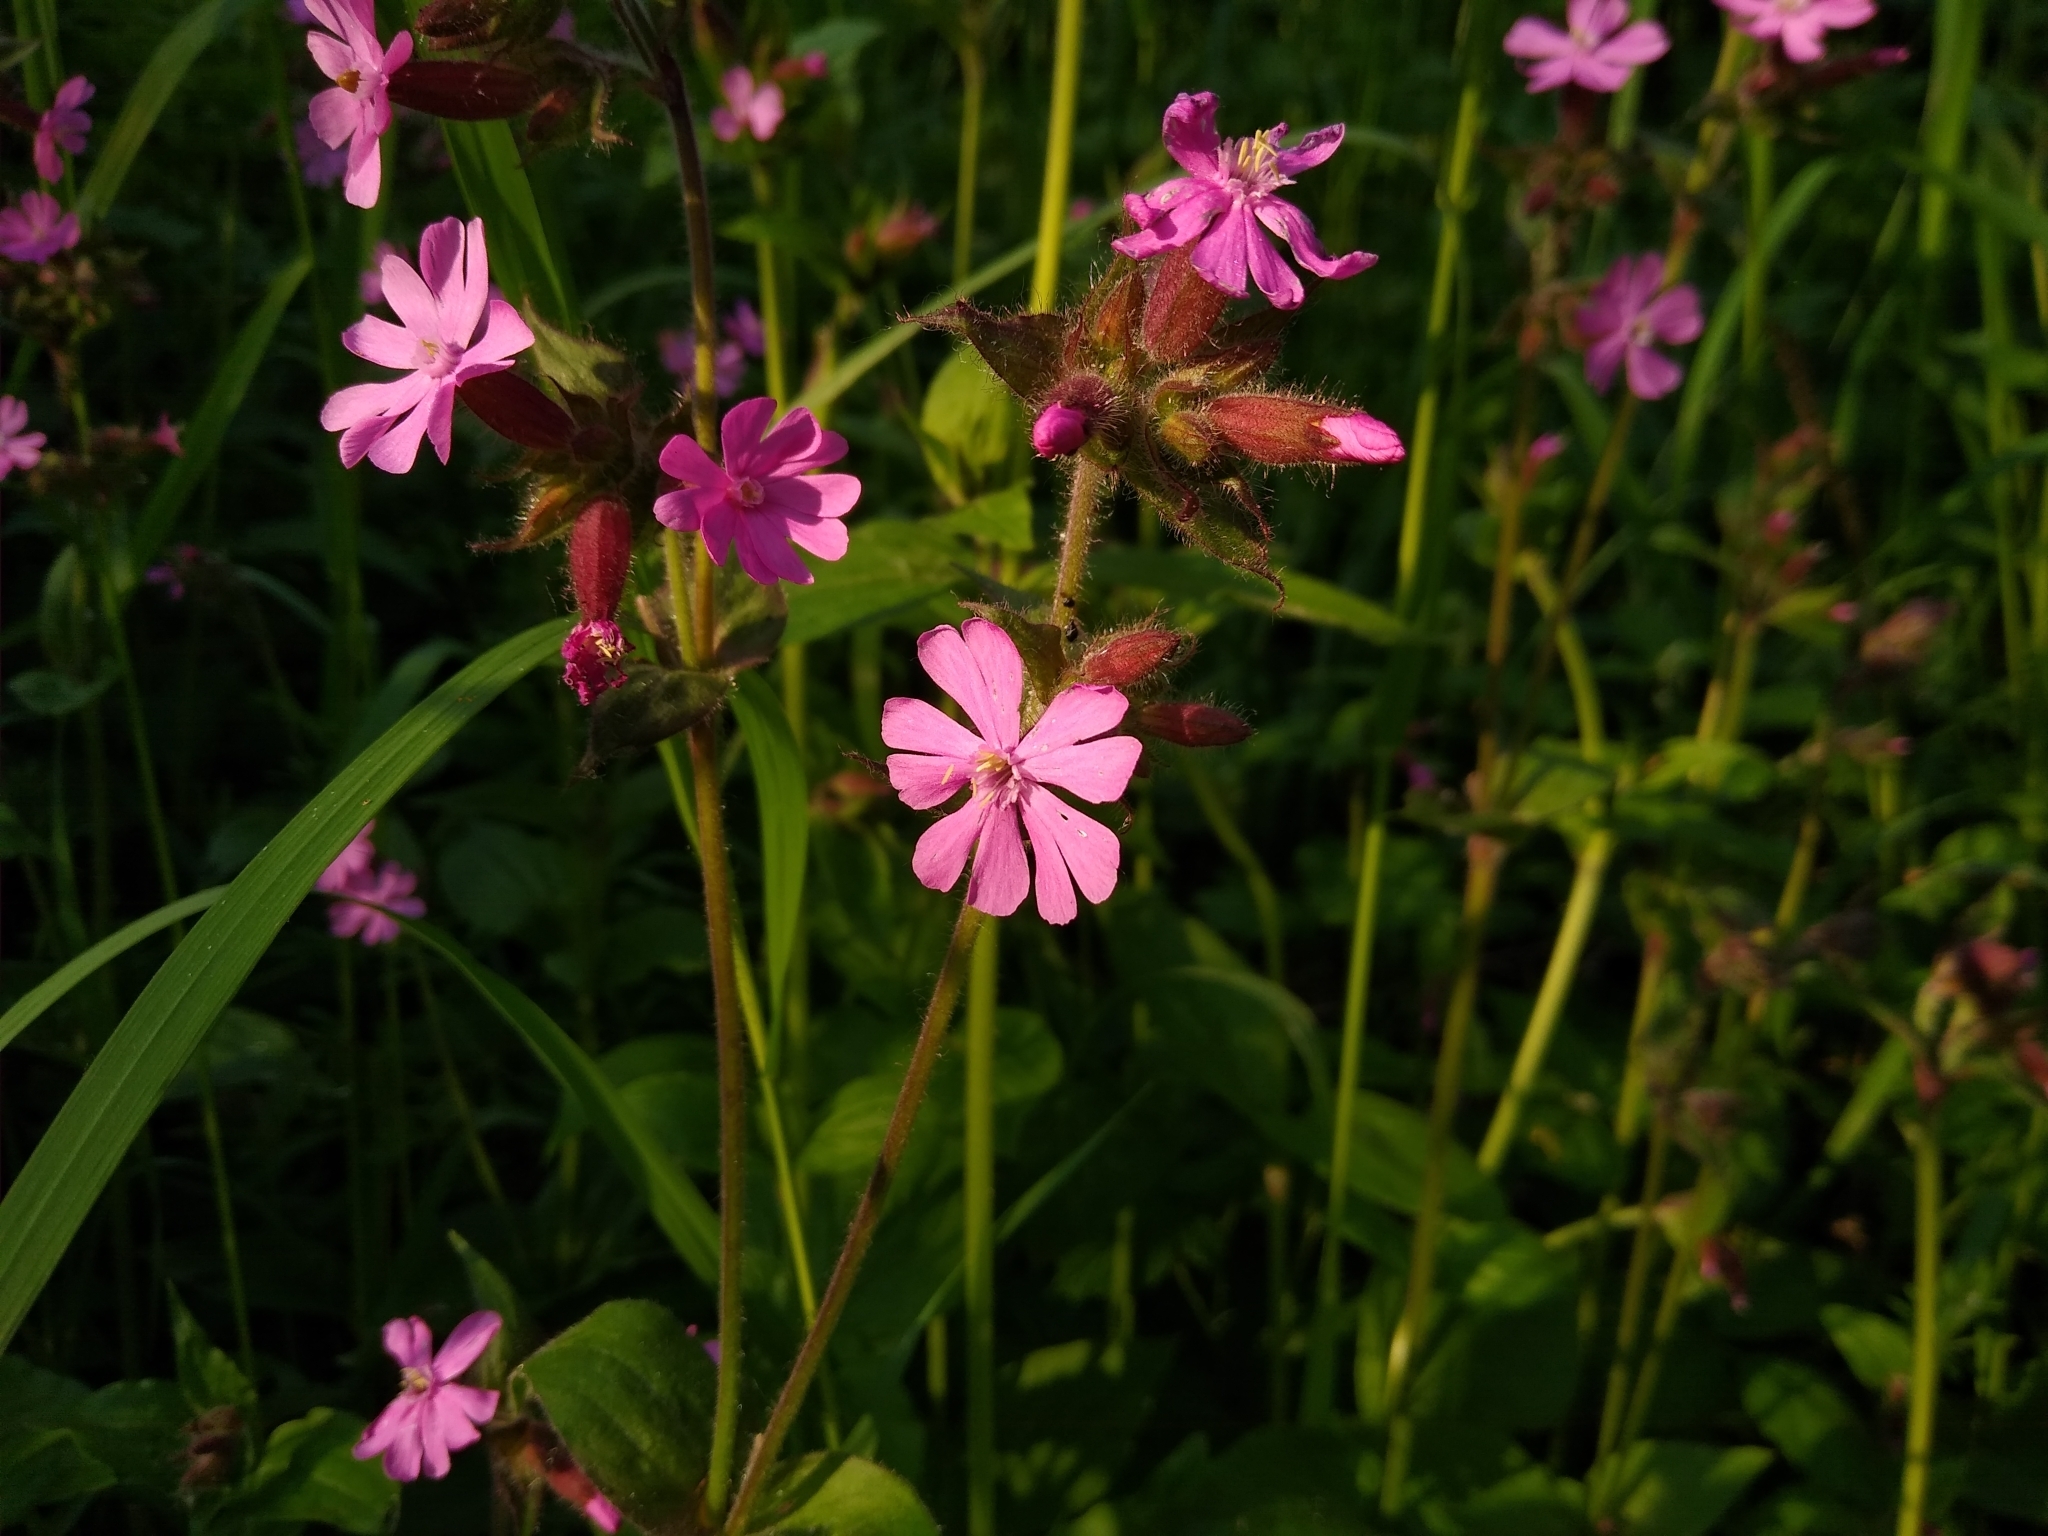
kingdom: Plantae
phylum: Tracheophyta
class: Magnoliopsida
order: Caryophyllales
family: Caryophyllaceae
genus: Silene
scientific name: Silene dioica
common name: Red campion
